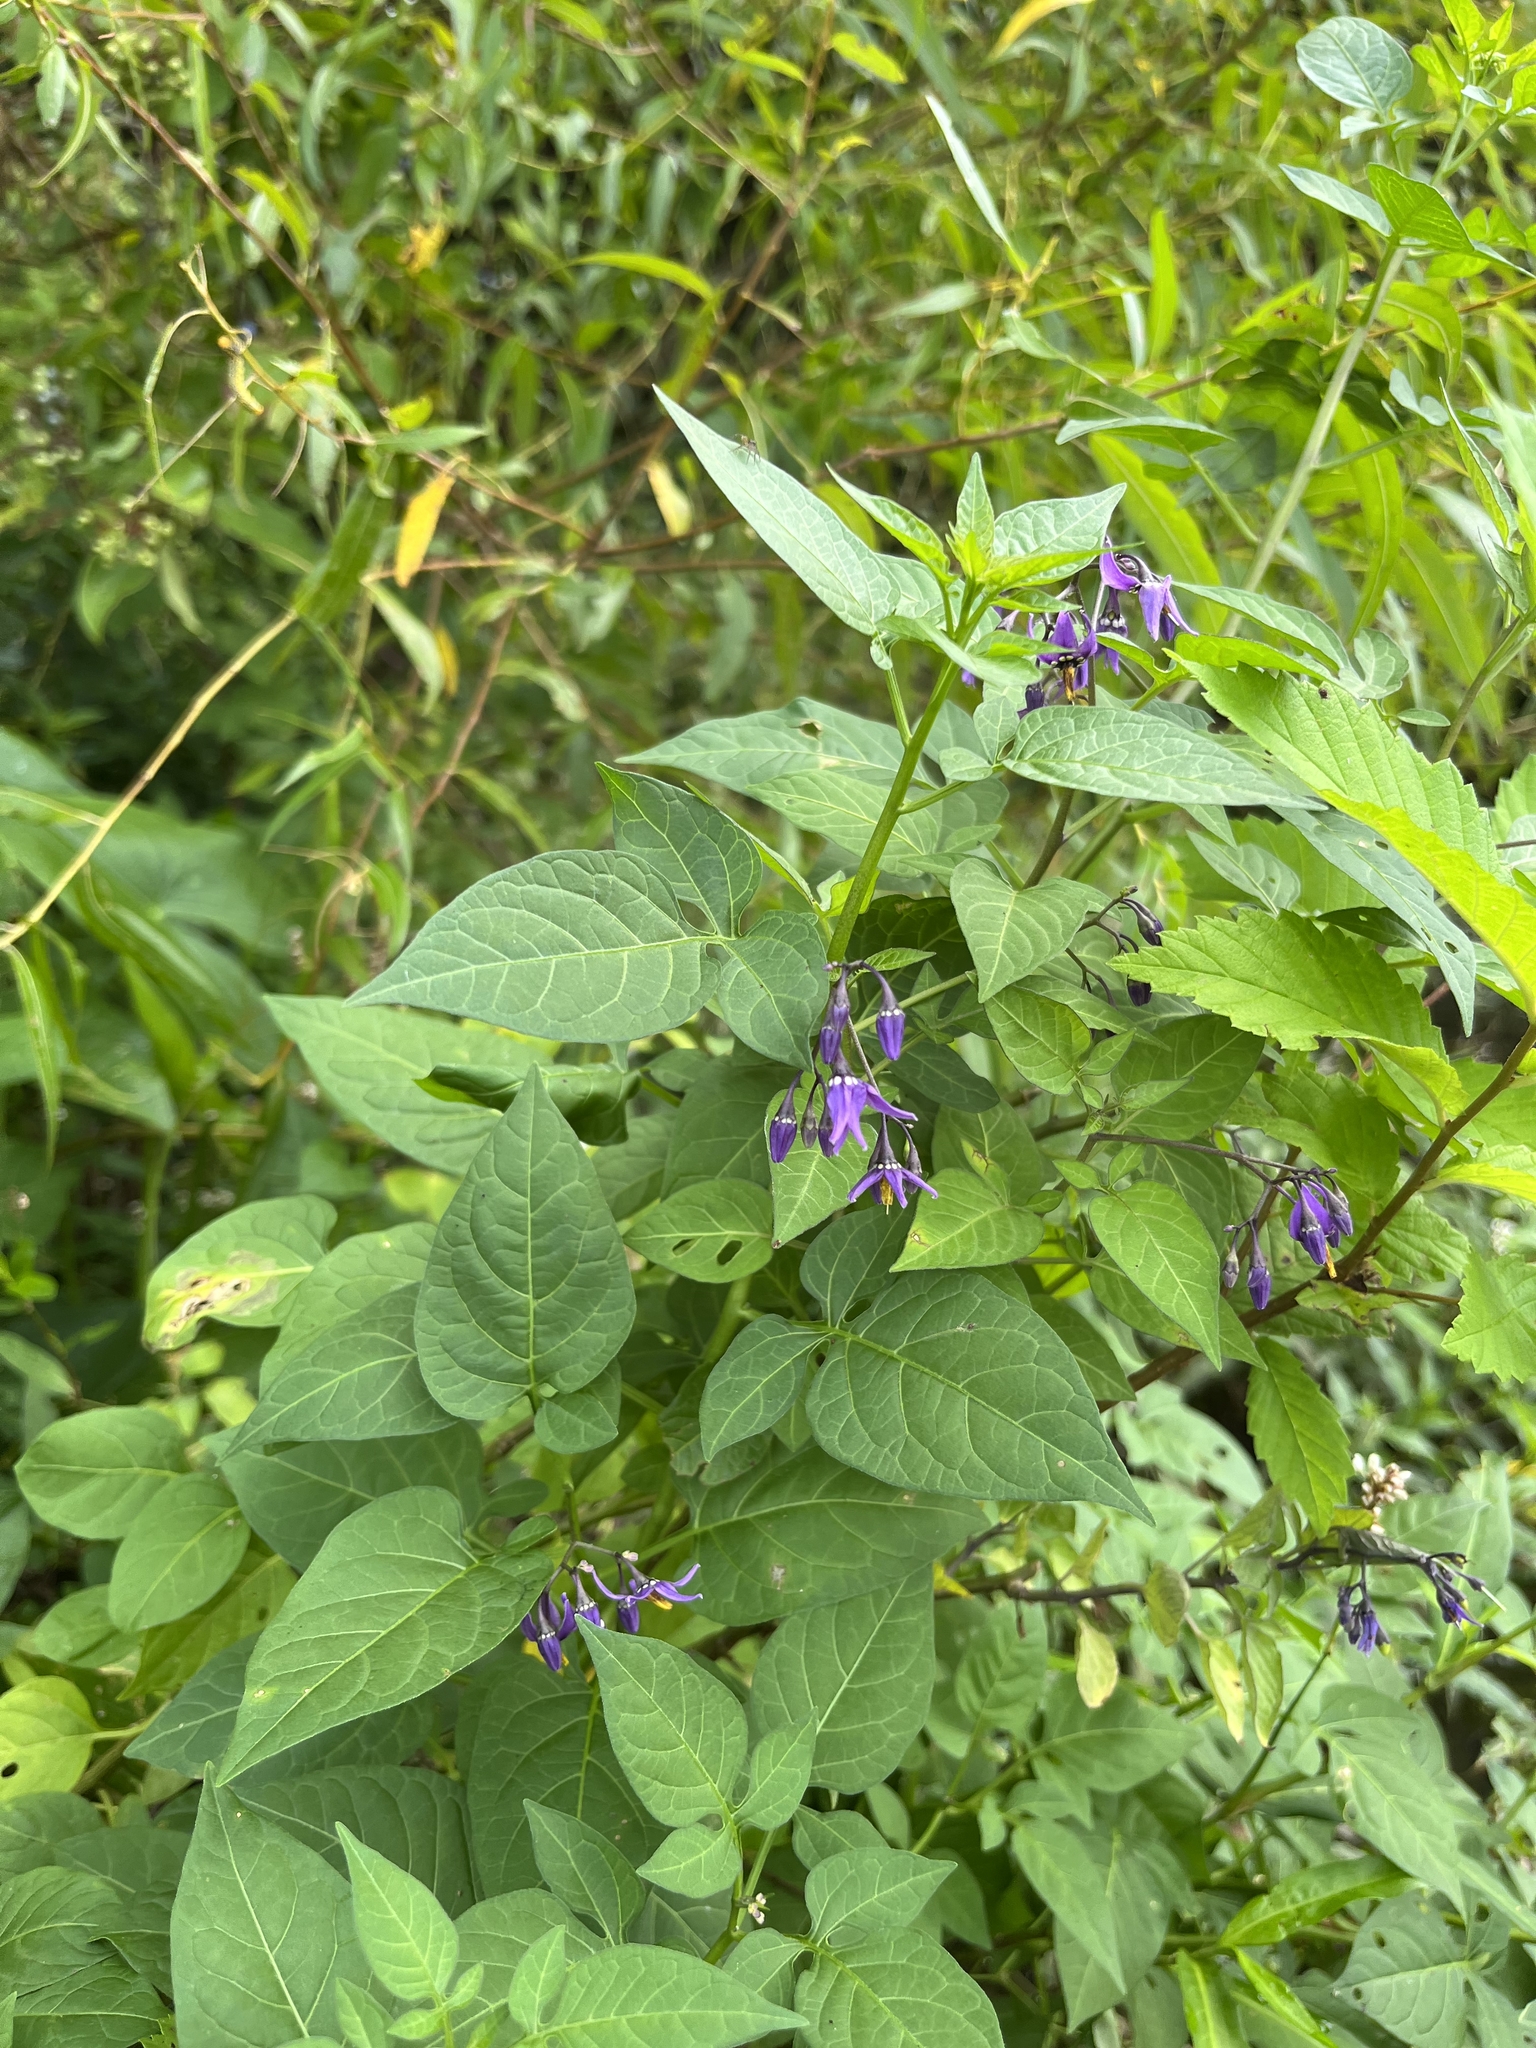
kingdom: Plantae
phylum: Tracheophyta
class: Magnoliopsida
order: Solanales
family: Solanaceae
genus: Solanum
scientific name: Solanum dulcamara
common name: Climbing nightshade
